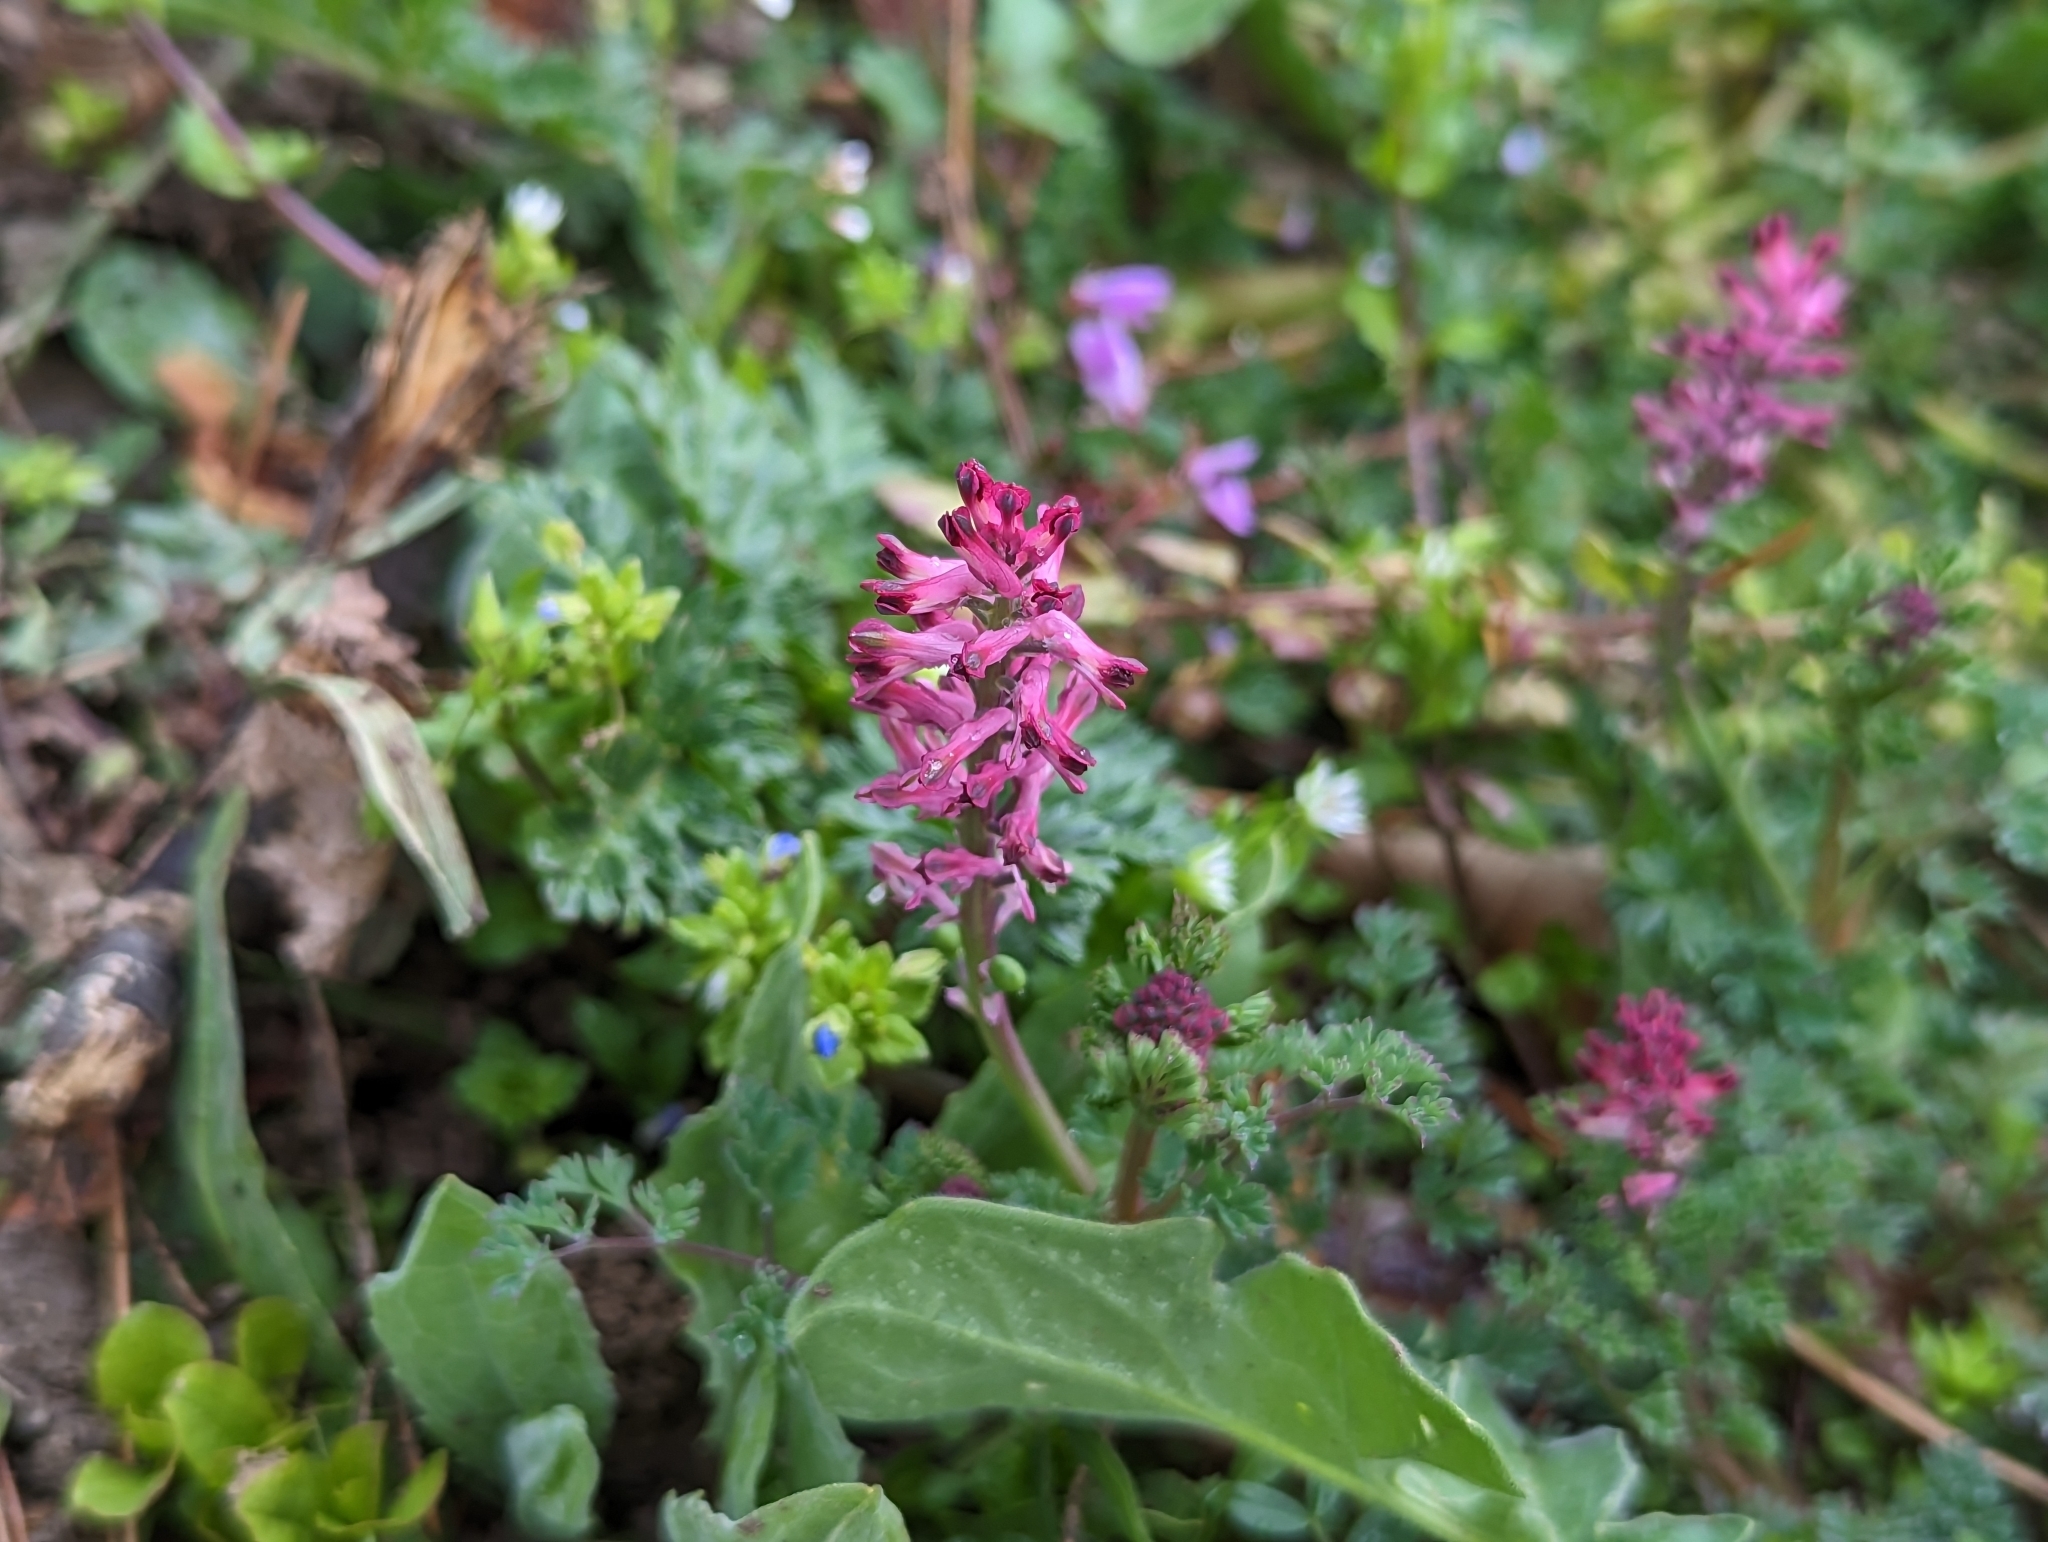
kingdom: Plantae
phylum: Tracheophyta
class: Magnoliopsida
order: Ranunculales
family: Papaveraceae
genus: Fumaria
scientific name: Fumaria officinalis
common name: Common fumitory
